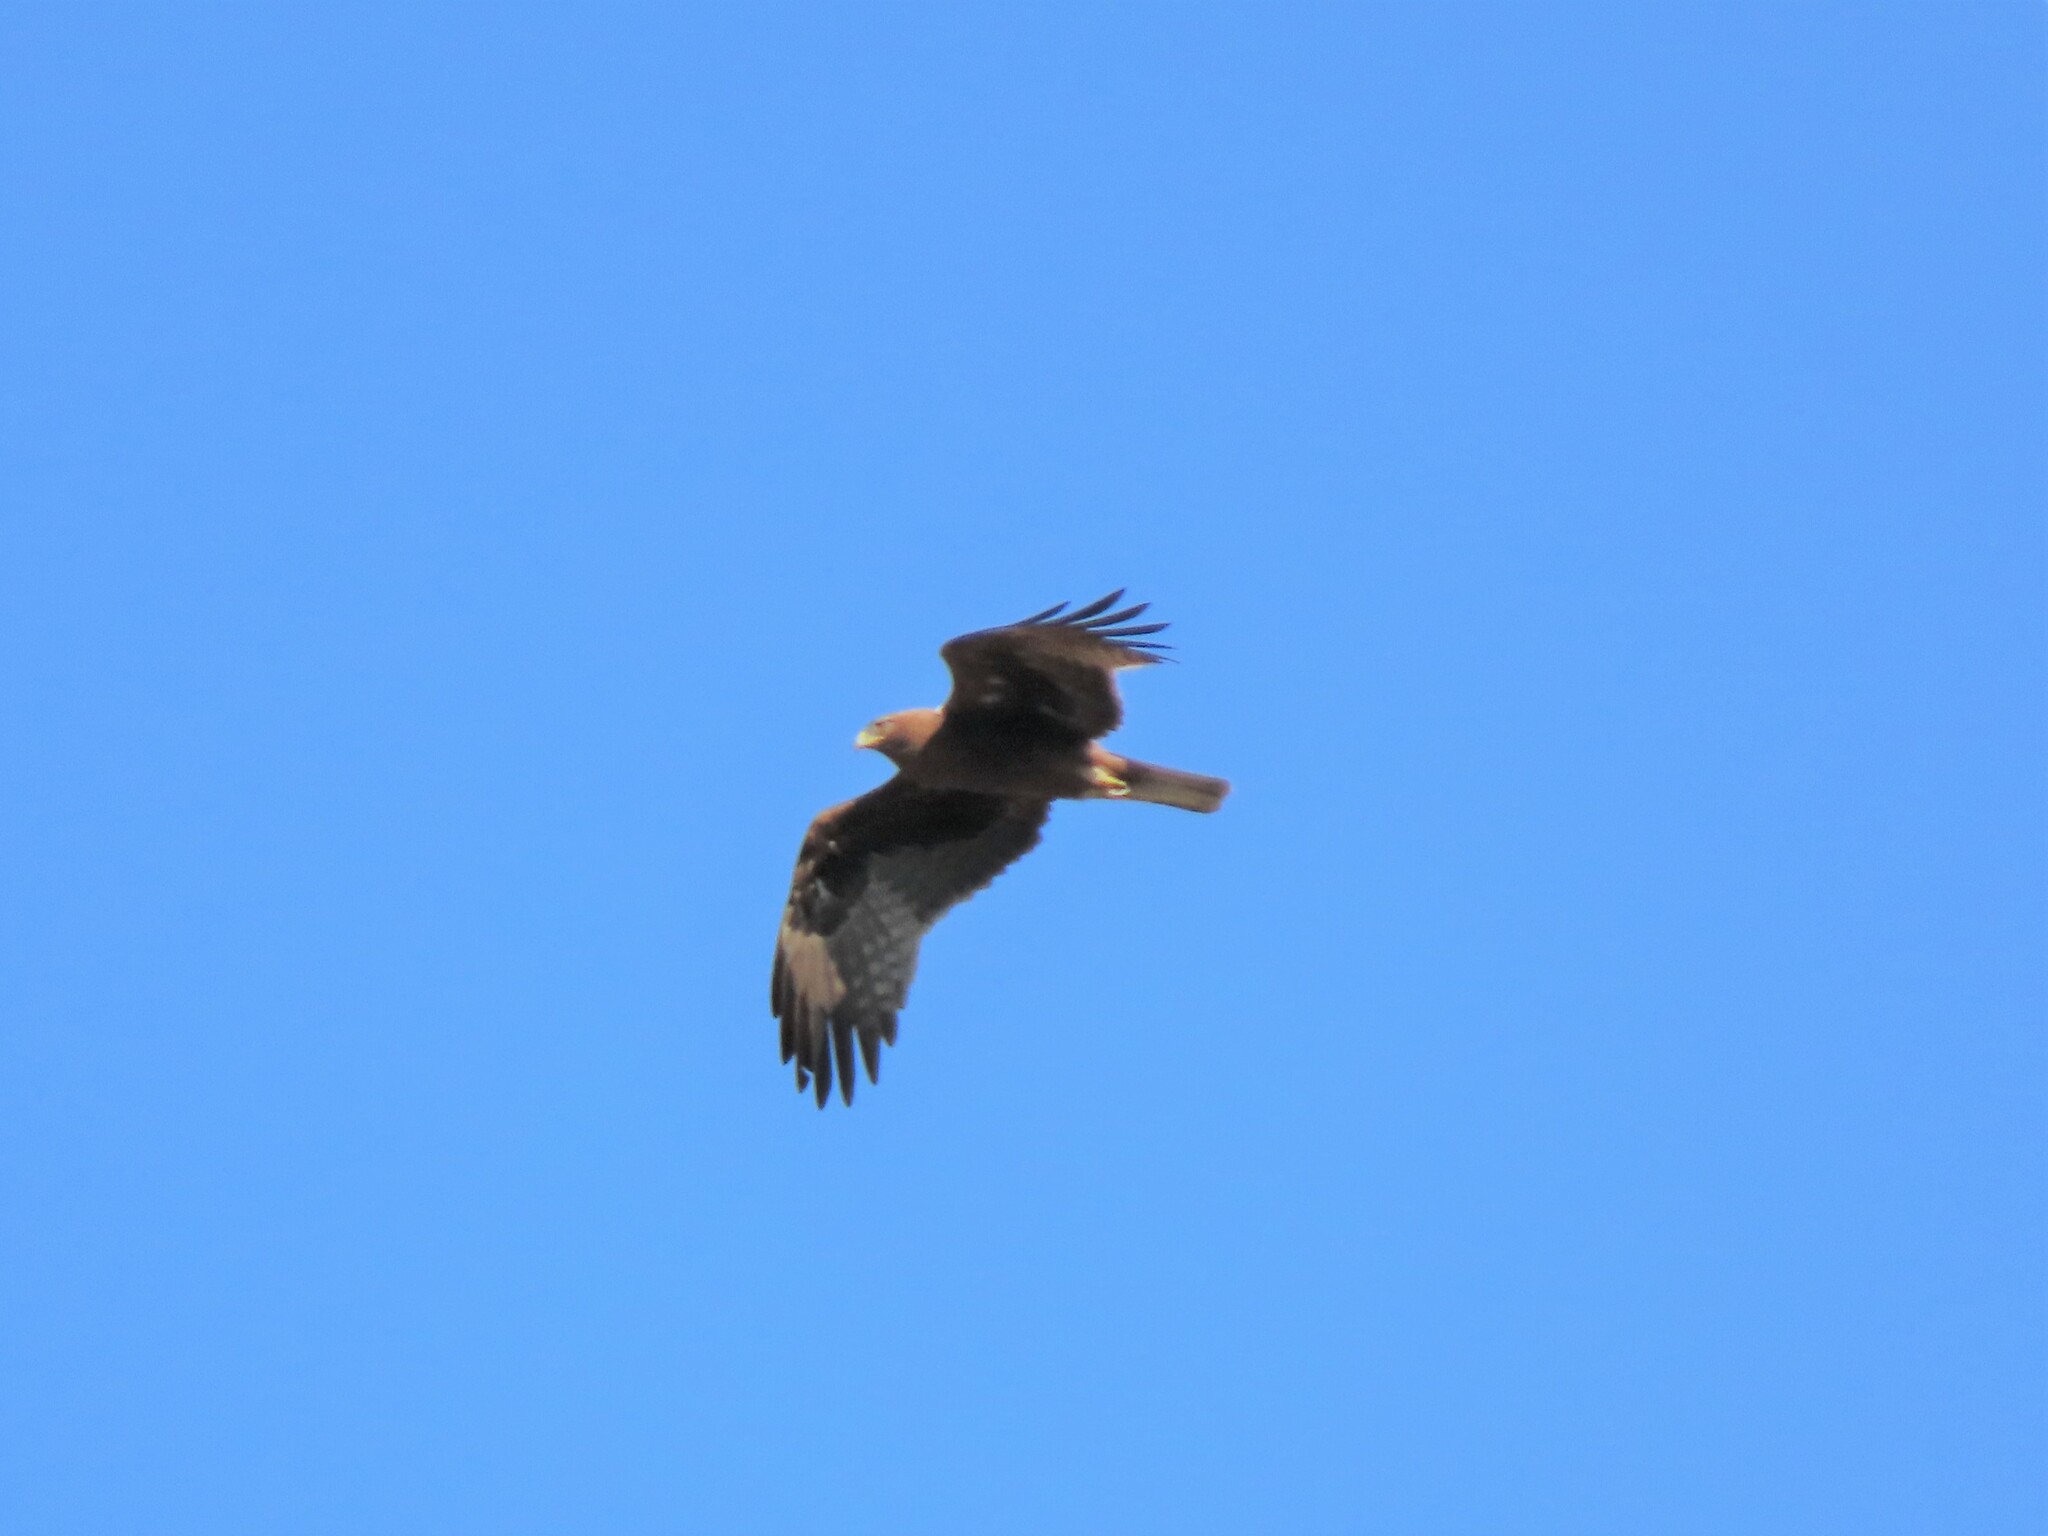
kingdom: Animalia
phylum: Chordata
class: Aves
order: Accipitriformes
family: Accipitridae
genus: Hieraaetus
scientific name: Hieraaetus pennatus
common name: Booted eagle
